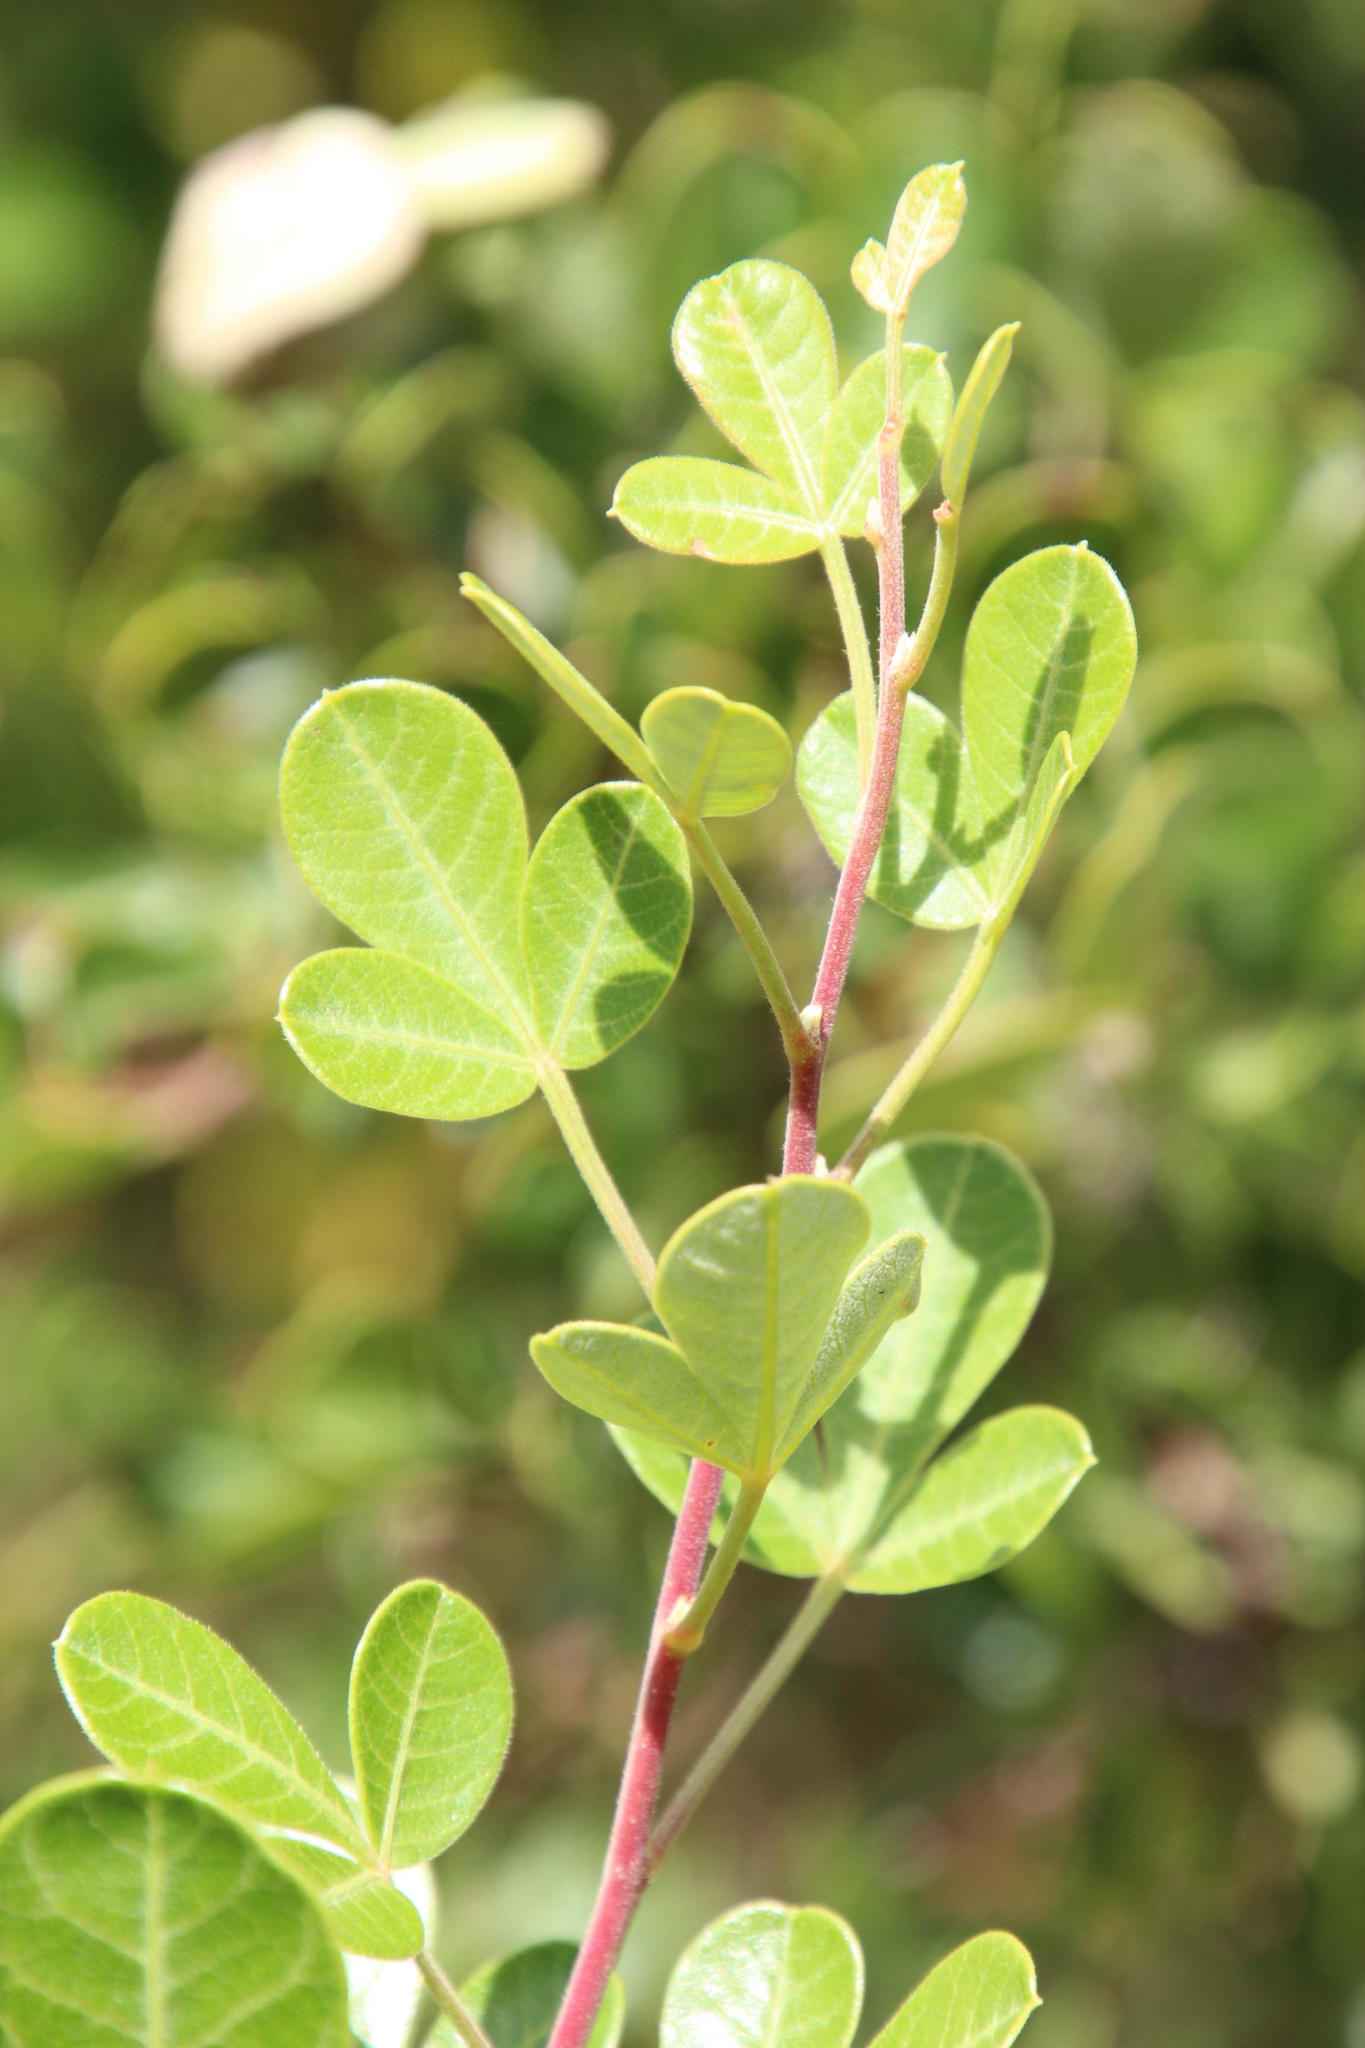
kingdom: Plantae
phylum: Tracheophyta
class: Magnoliopsida
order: Sapindales
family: Anacardiaceae
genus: Searsia
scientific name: Searsia divaricata
